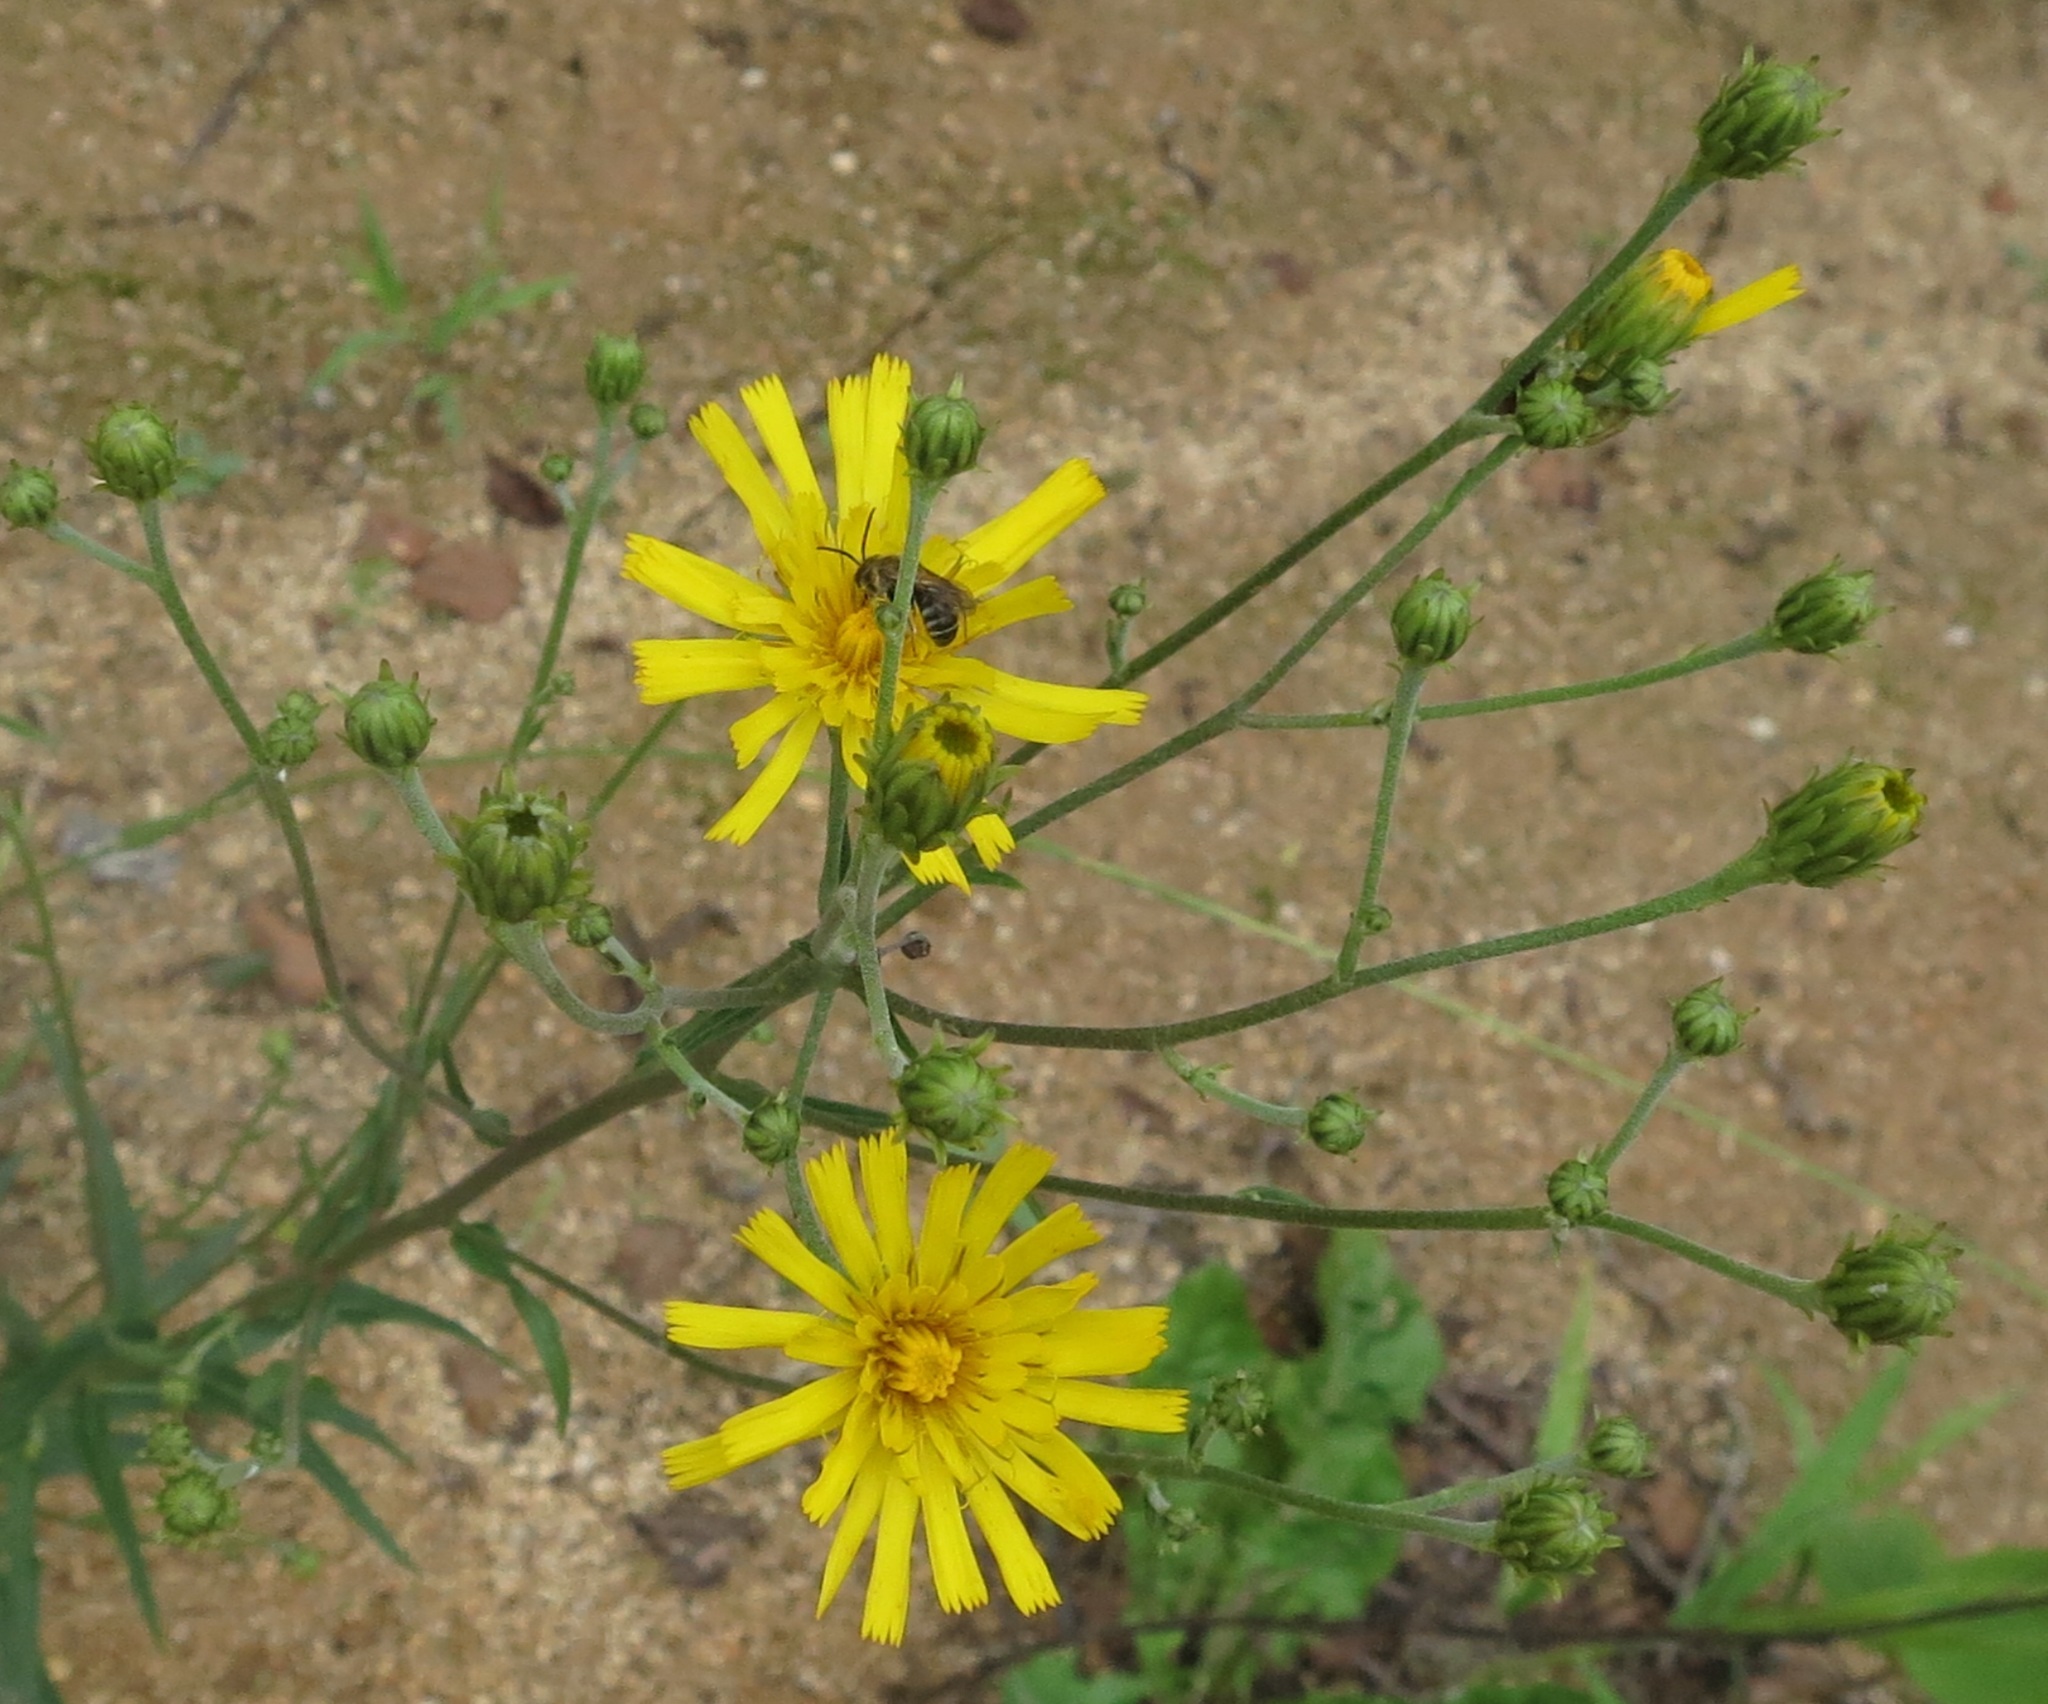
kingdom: Plantae
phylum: Tracheophyta
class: Magnoliopsida
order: Asterales
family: Asteraceae
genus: Hieracium
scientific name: Hieracium umbellatum
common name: Northern hawkweed
